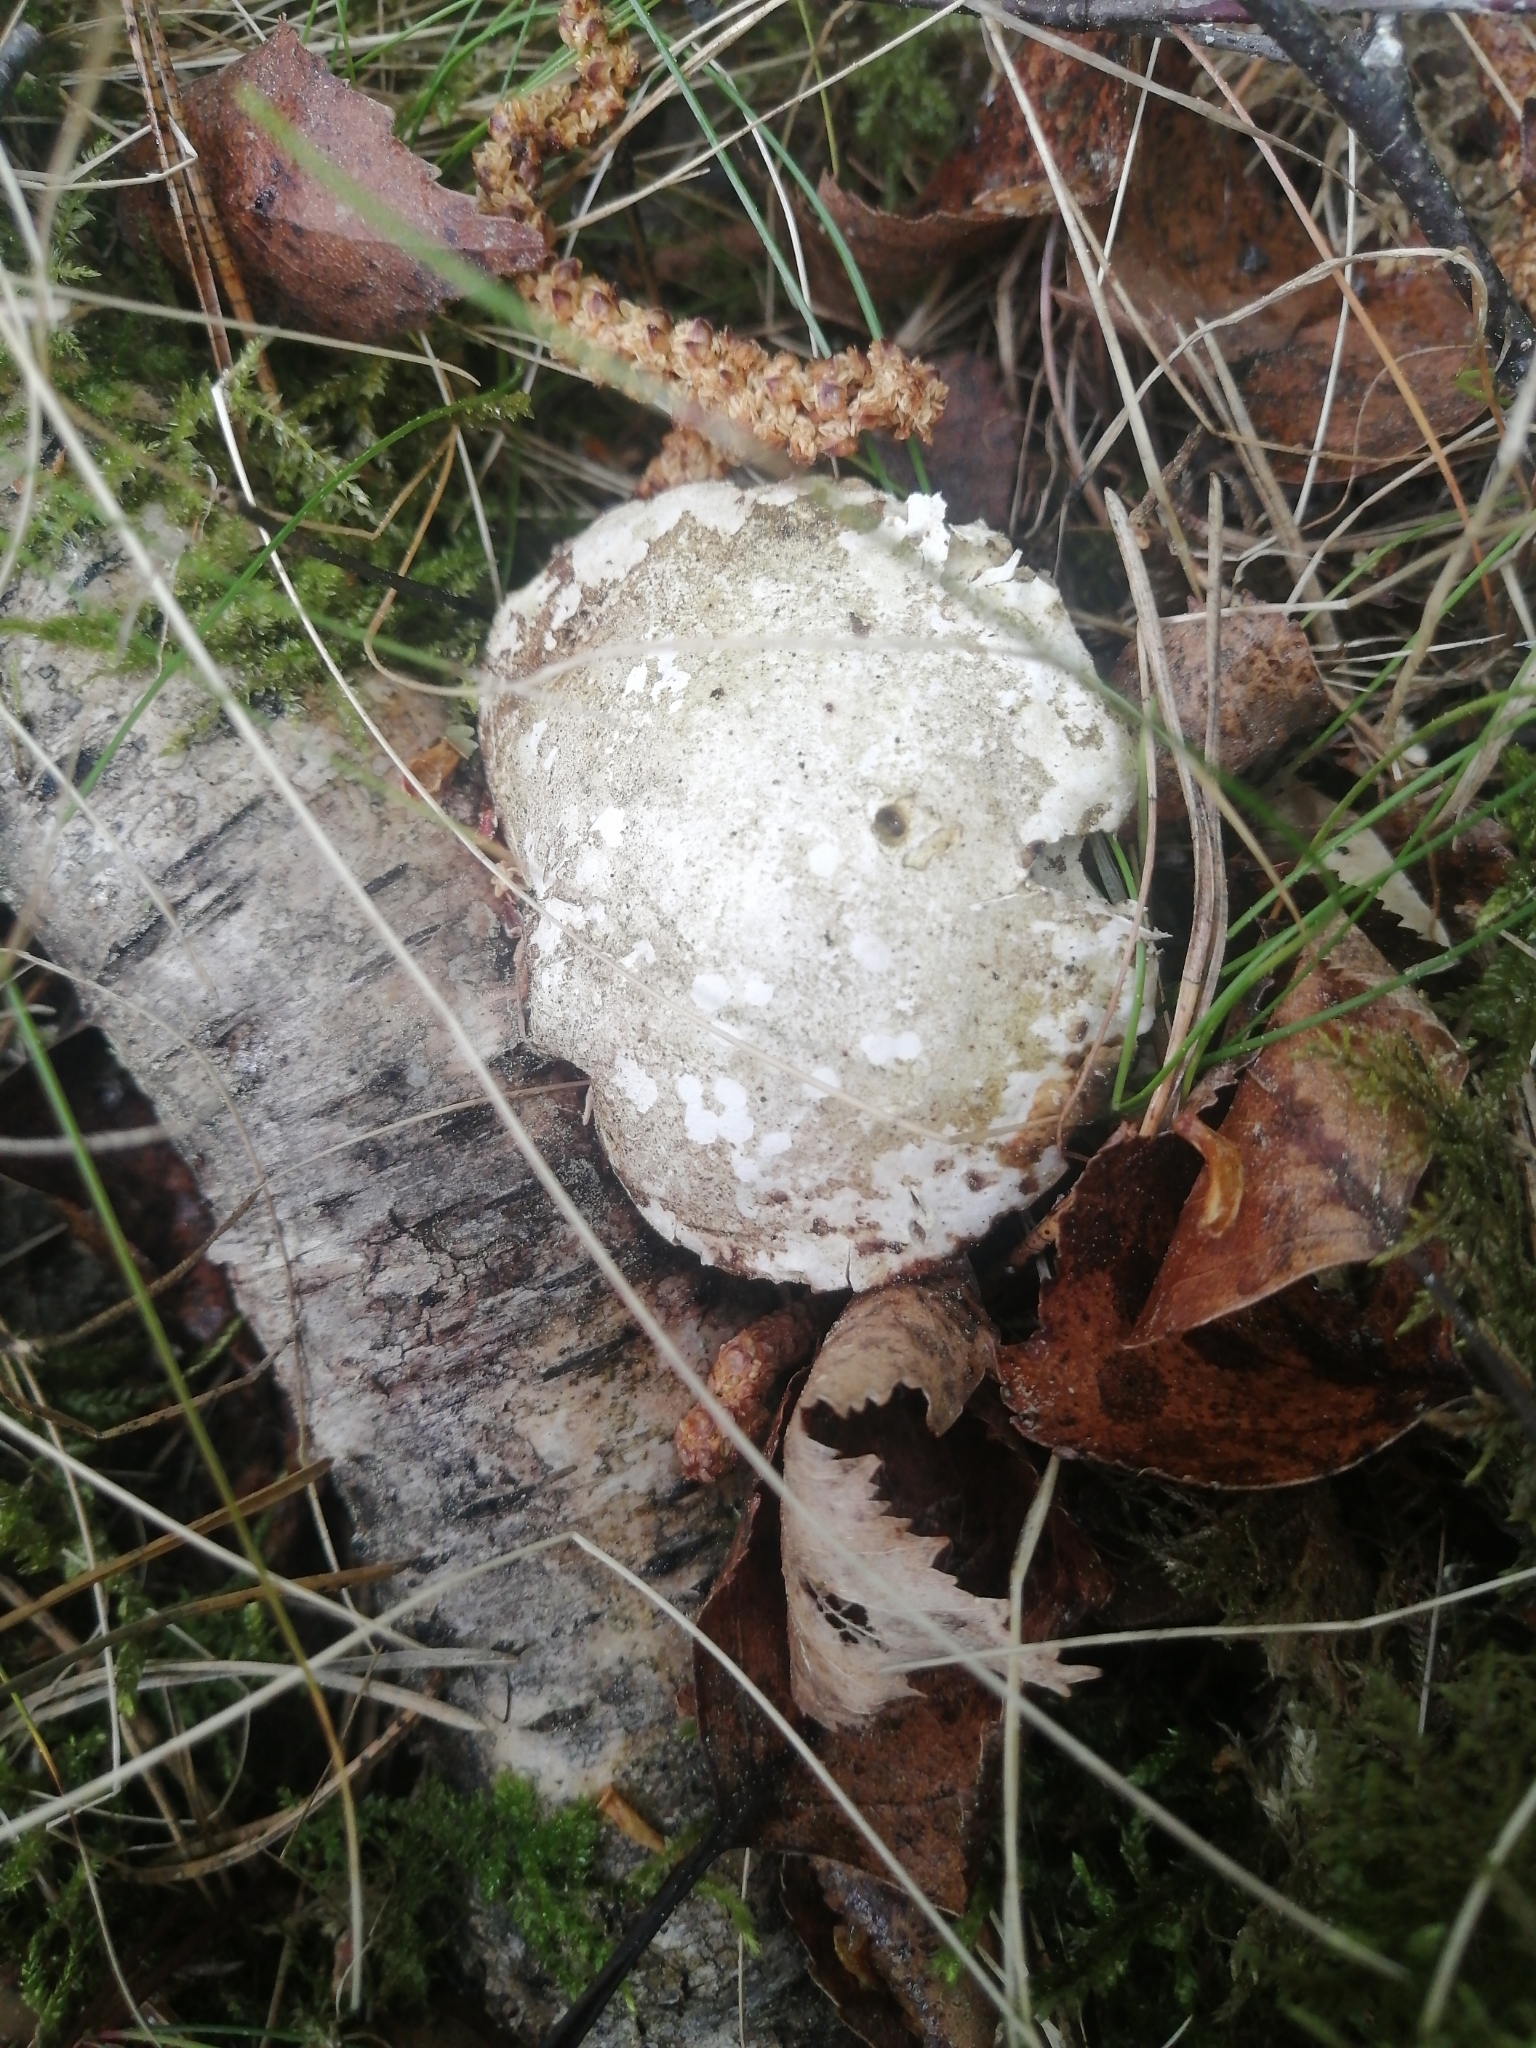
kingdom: Fungi
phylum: Basidiomycota
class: Agaricomycetes
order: Polyporales
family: Fomitopsidaceae
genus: Fomitopsis
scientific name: Fomitopsis betulina
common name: Birch polypore
